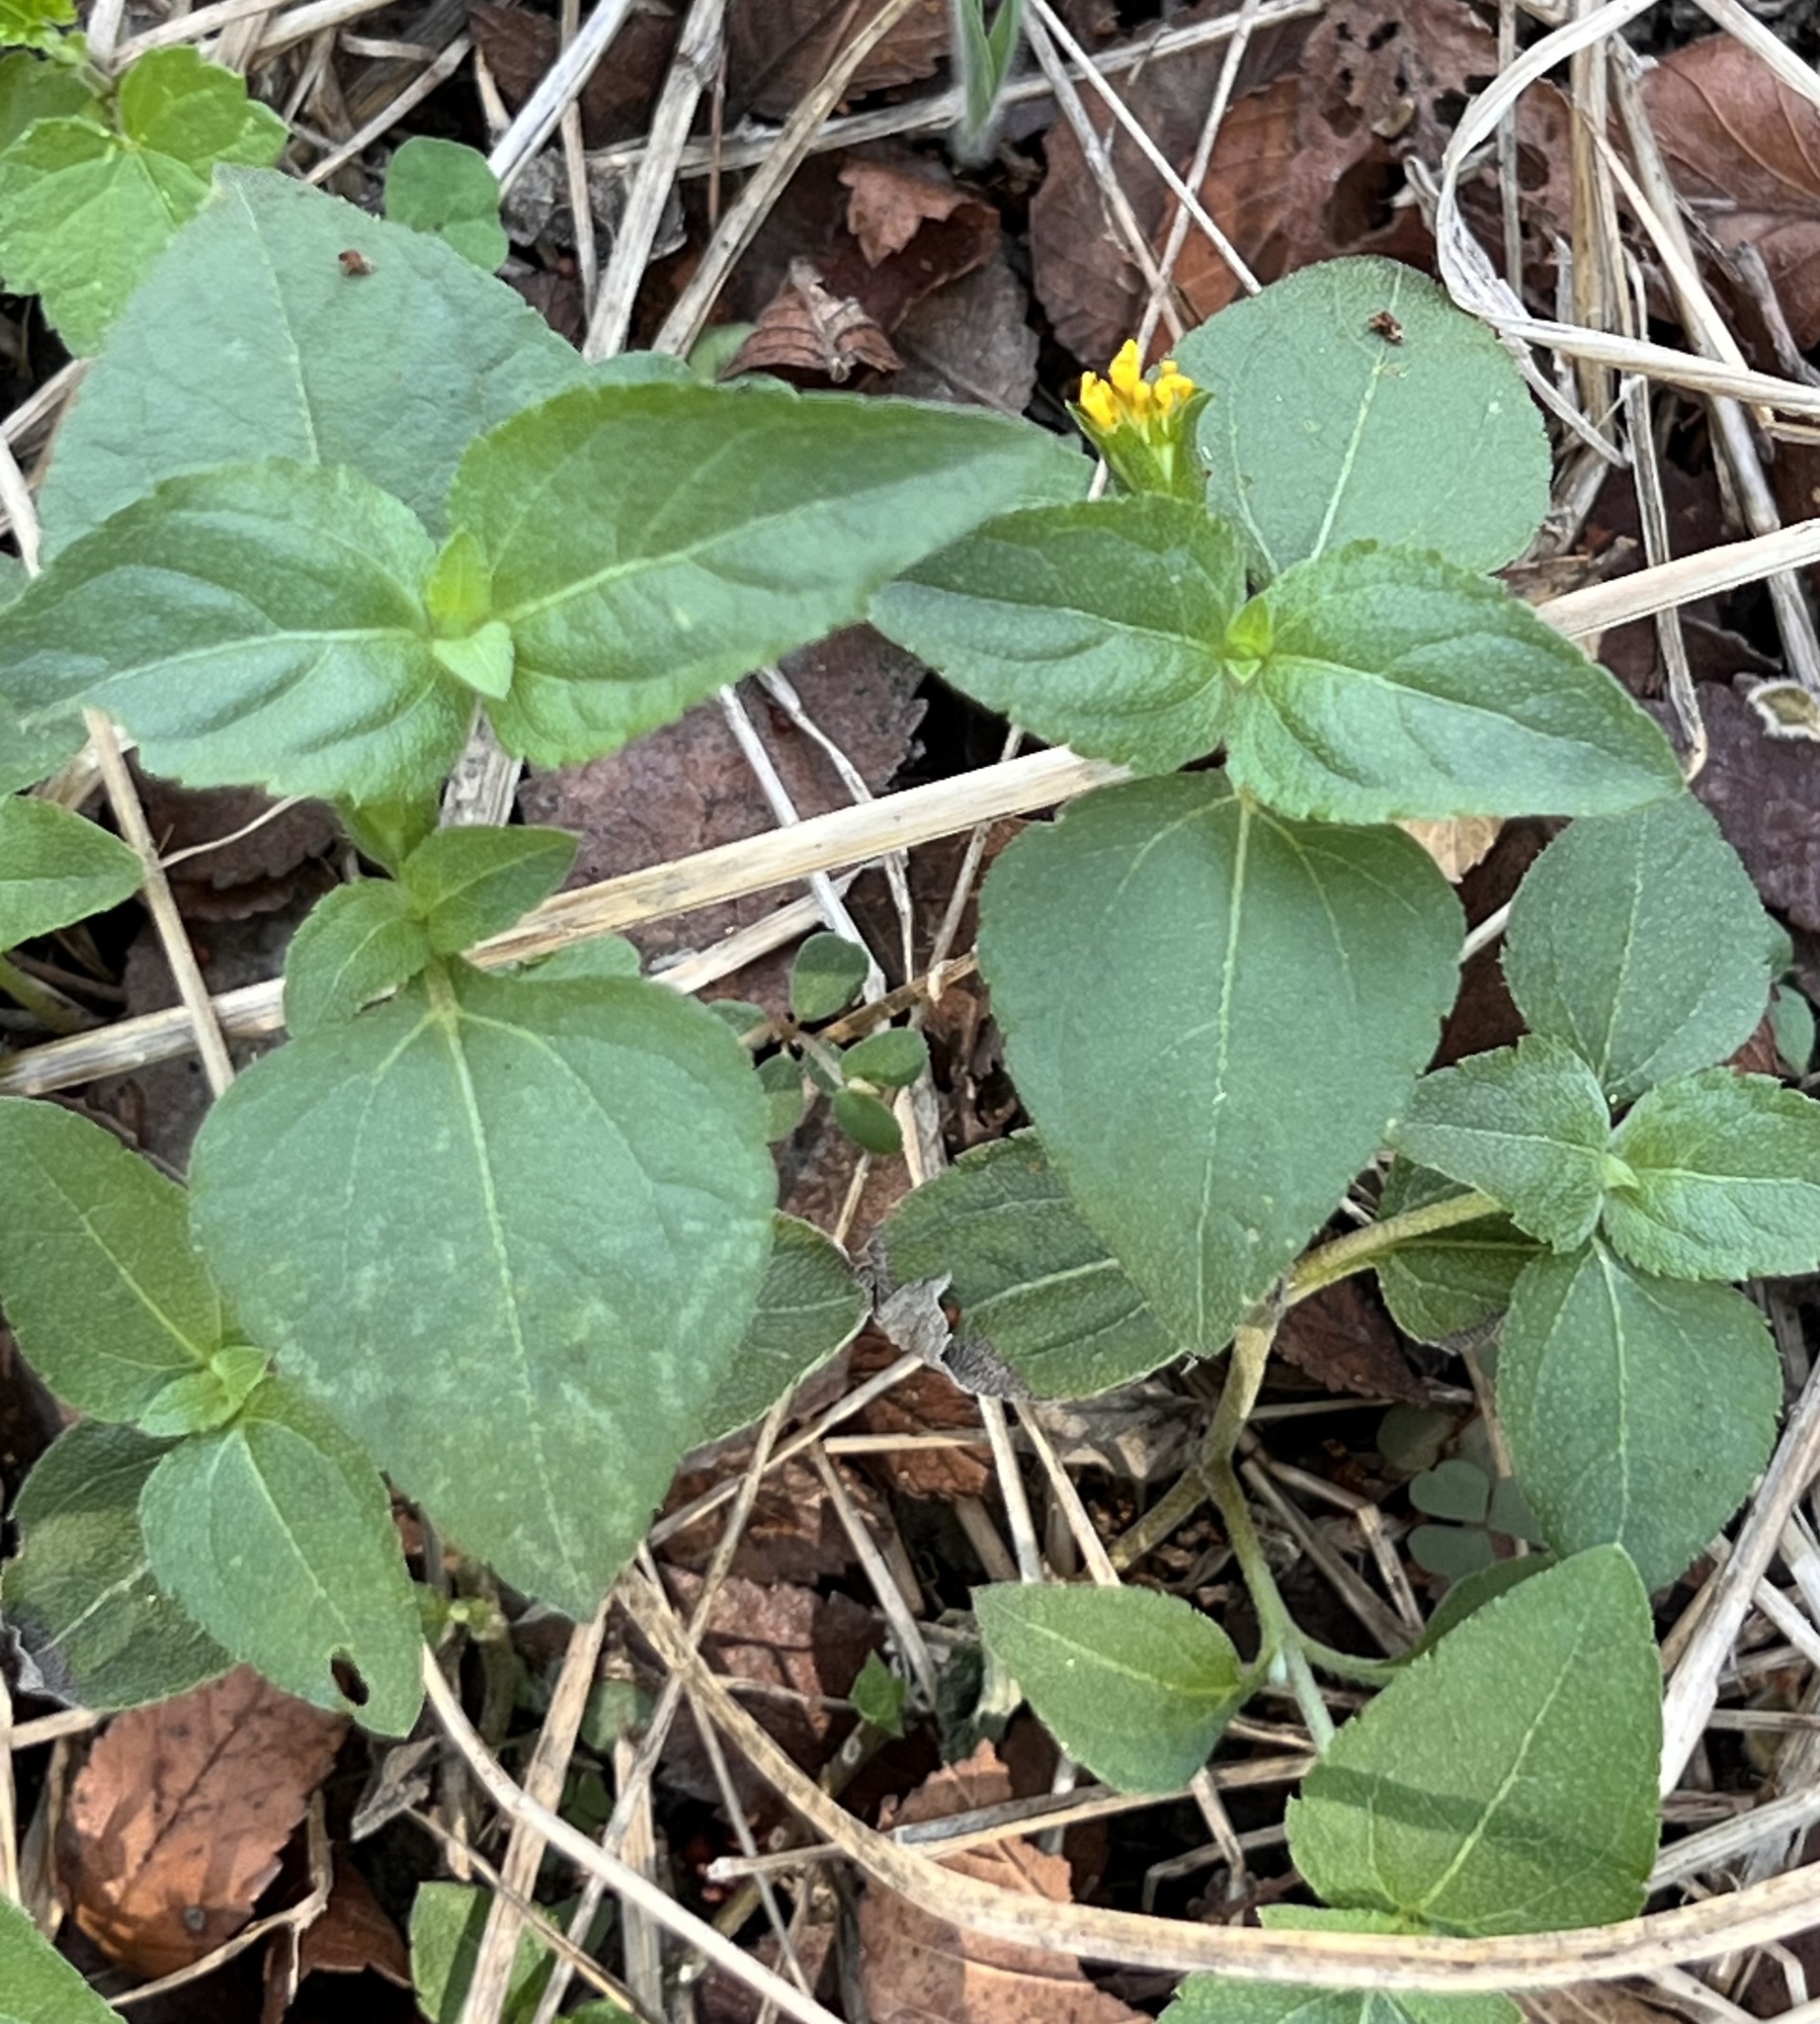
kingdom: Plantae
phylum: Tracheophyta
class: Magnoliopsida
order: Asterales
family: Asteraceae
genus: Calyptocarpus
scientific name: Calyptocarpus vialis
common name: Straggler daisy
